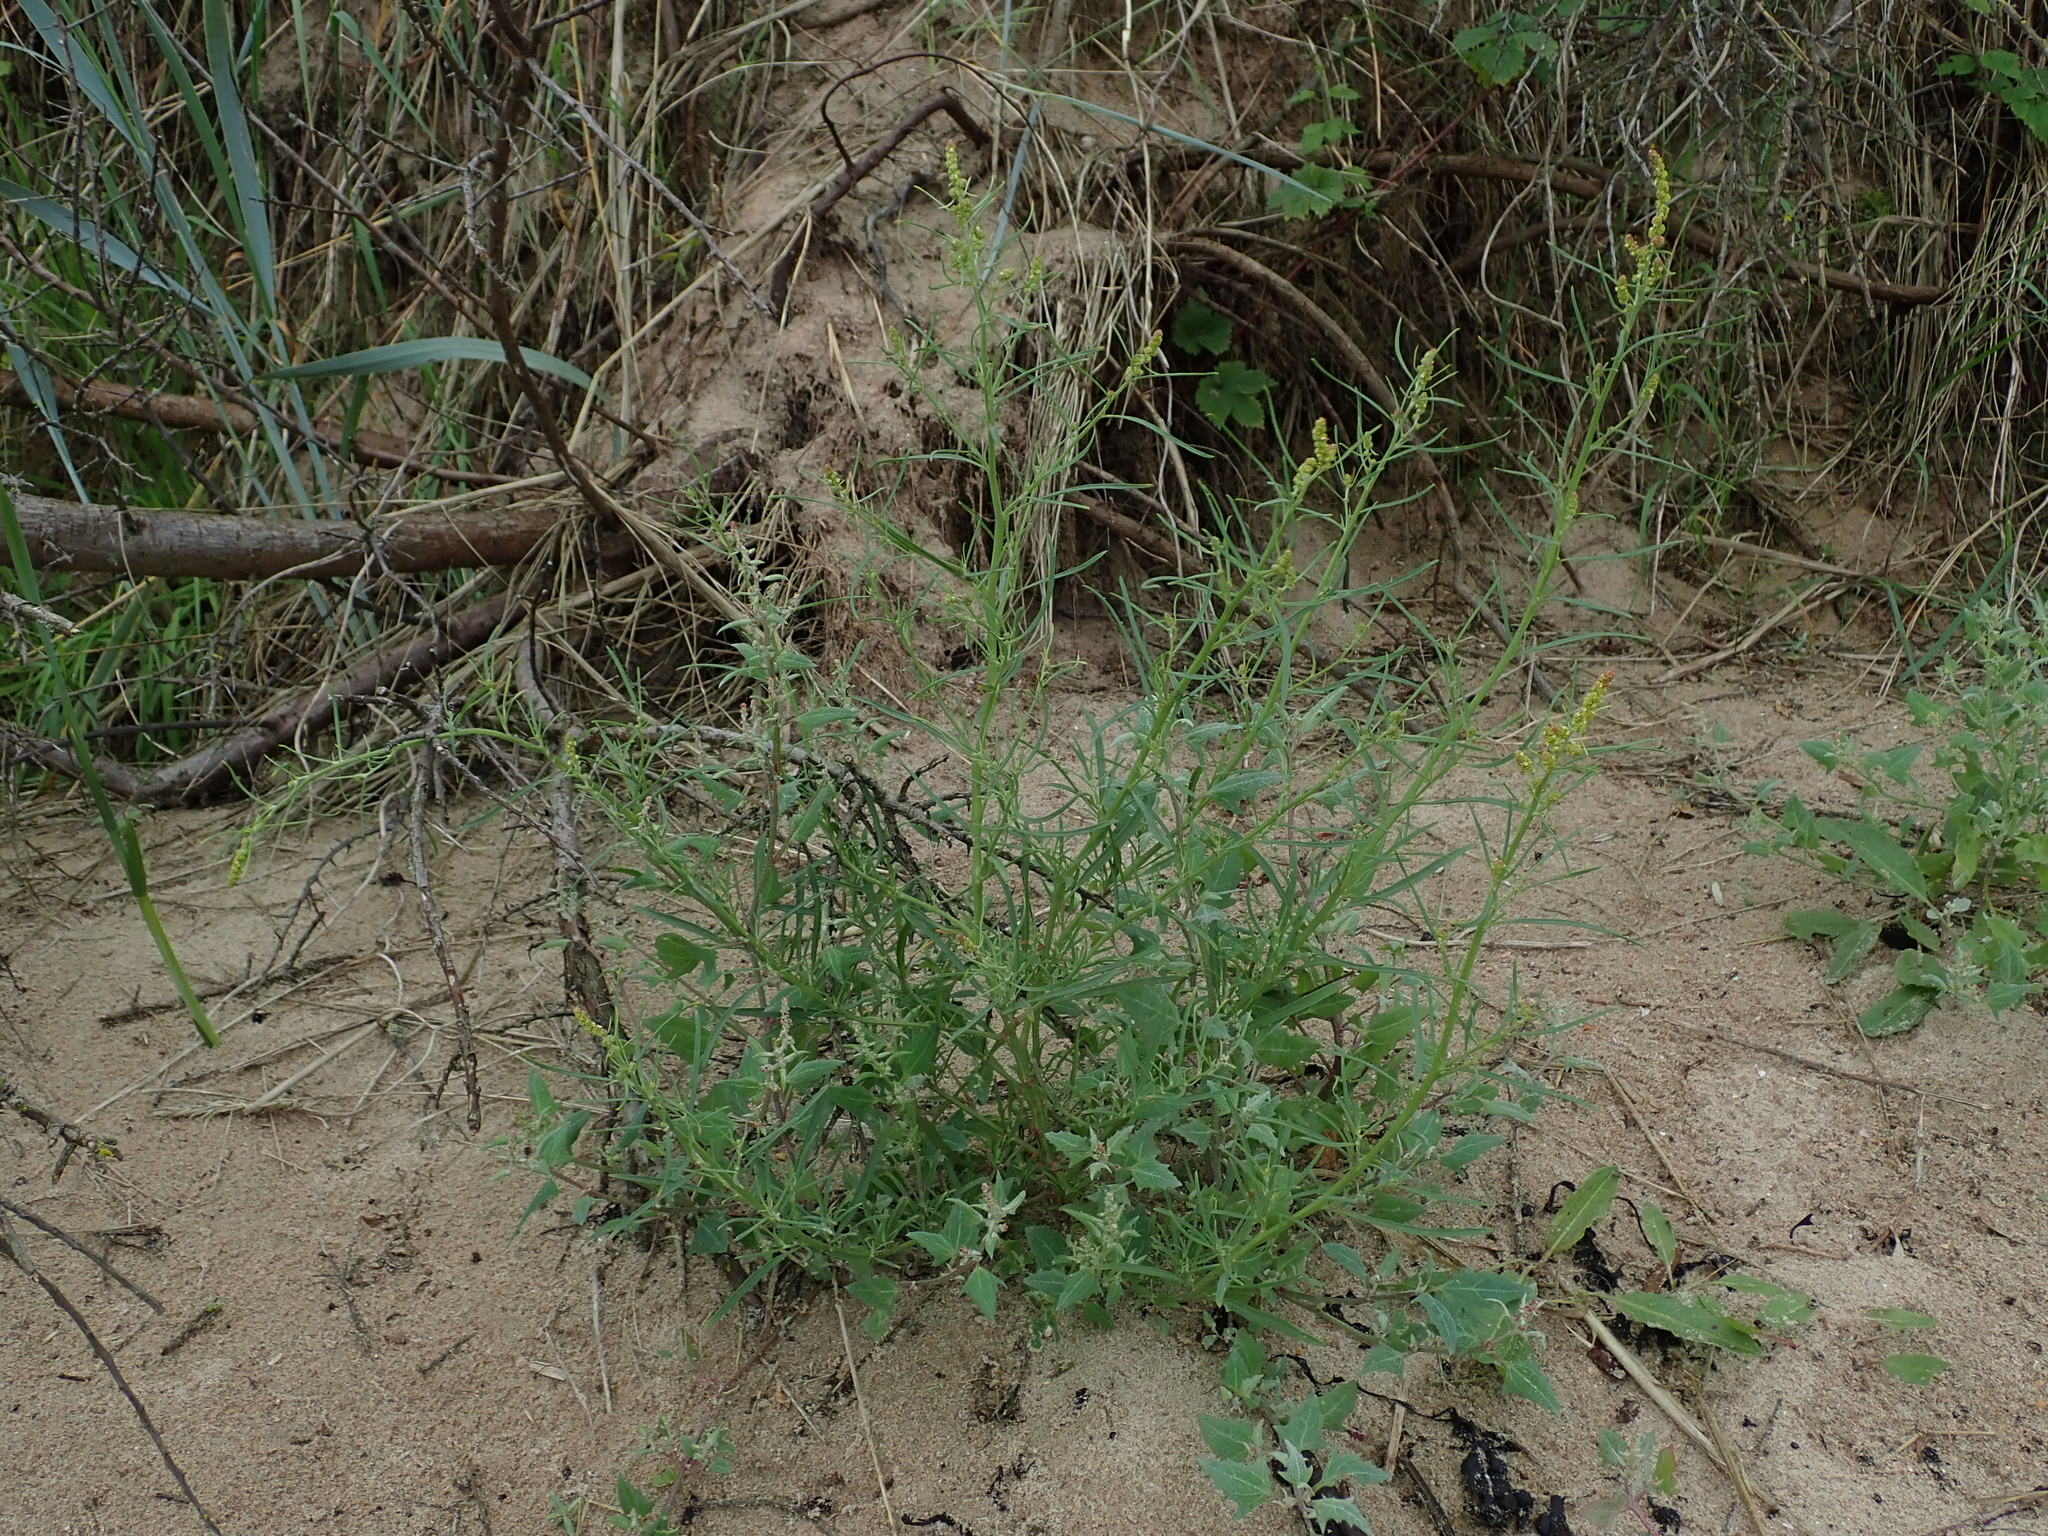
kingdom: Plantae
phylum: Tracheophyta
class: Magnoliopsida
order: Caryophyllales
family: Amaranthaceae
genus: Atriplex
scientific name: Atriplex littoralis
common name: Grass-leaved orache
